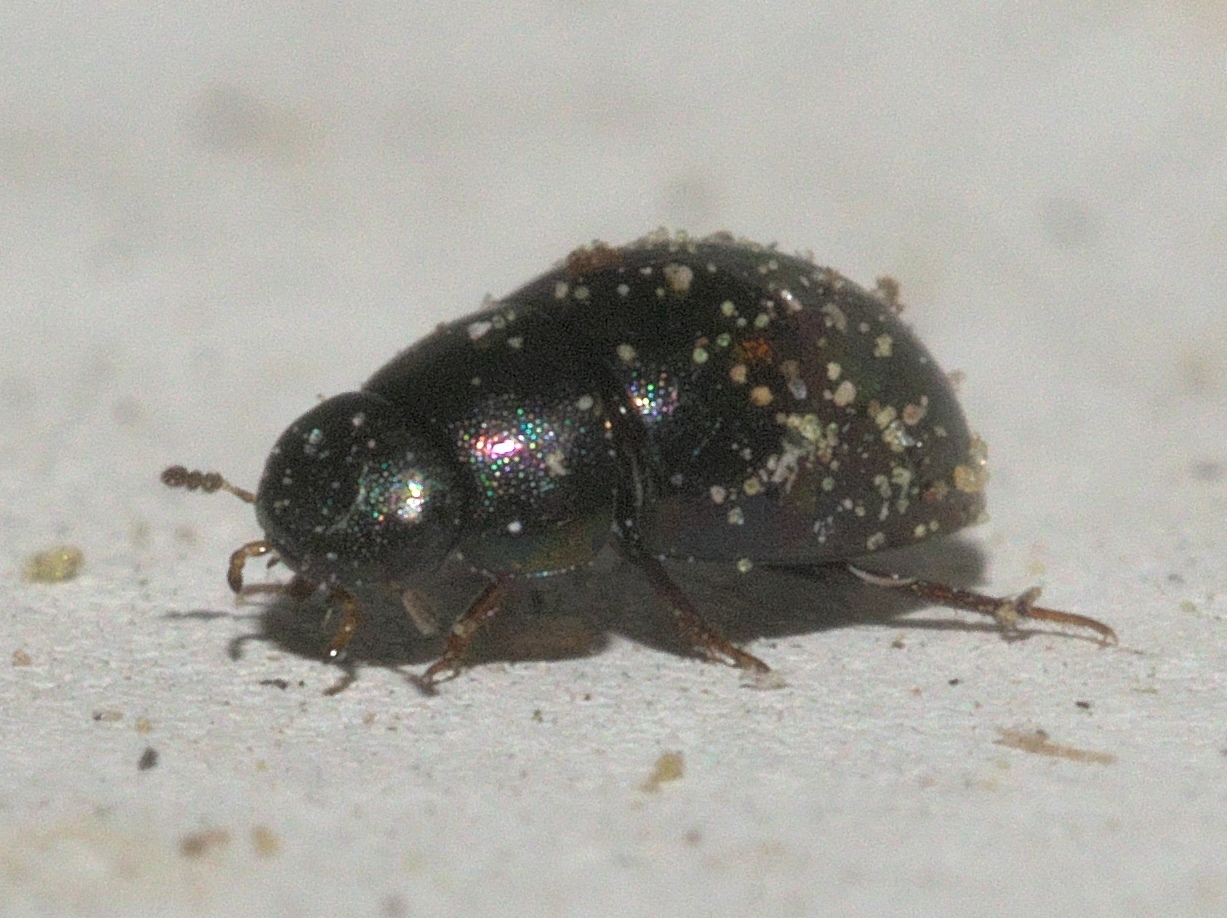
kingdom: Animalia
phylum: Arthropoda
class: Insecta
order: Coleoptera
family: Hydrophilidae
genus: Paracymus
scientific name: Paracymus
